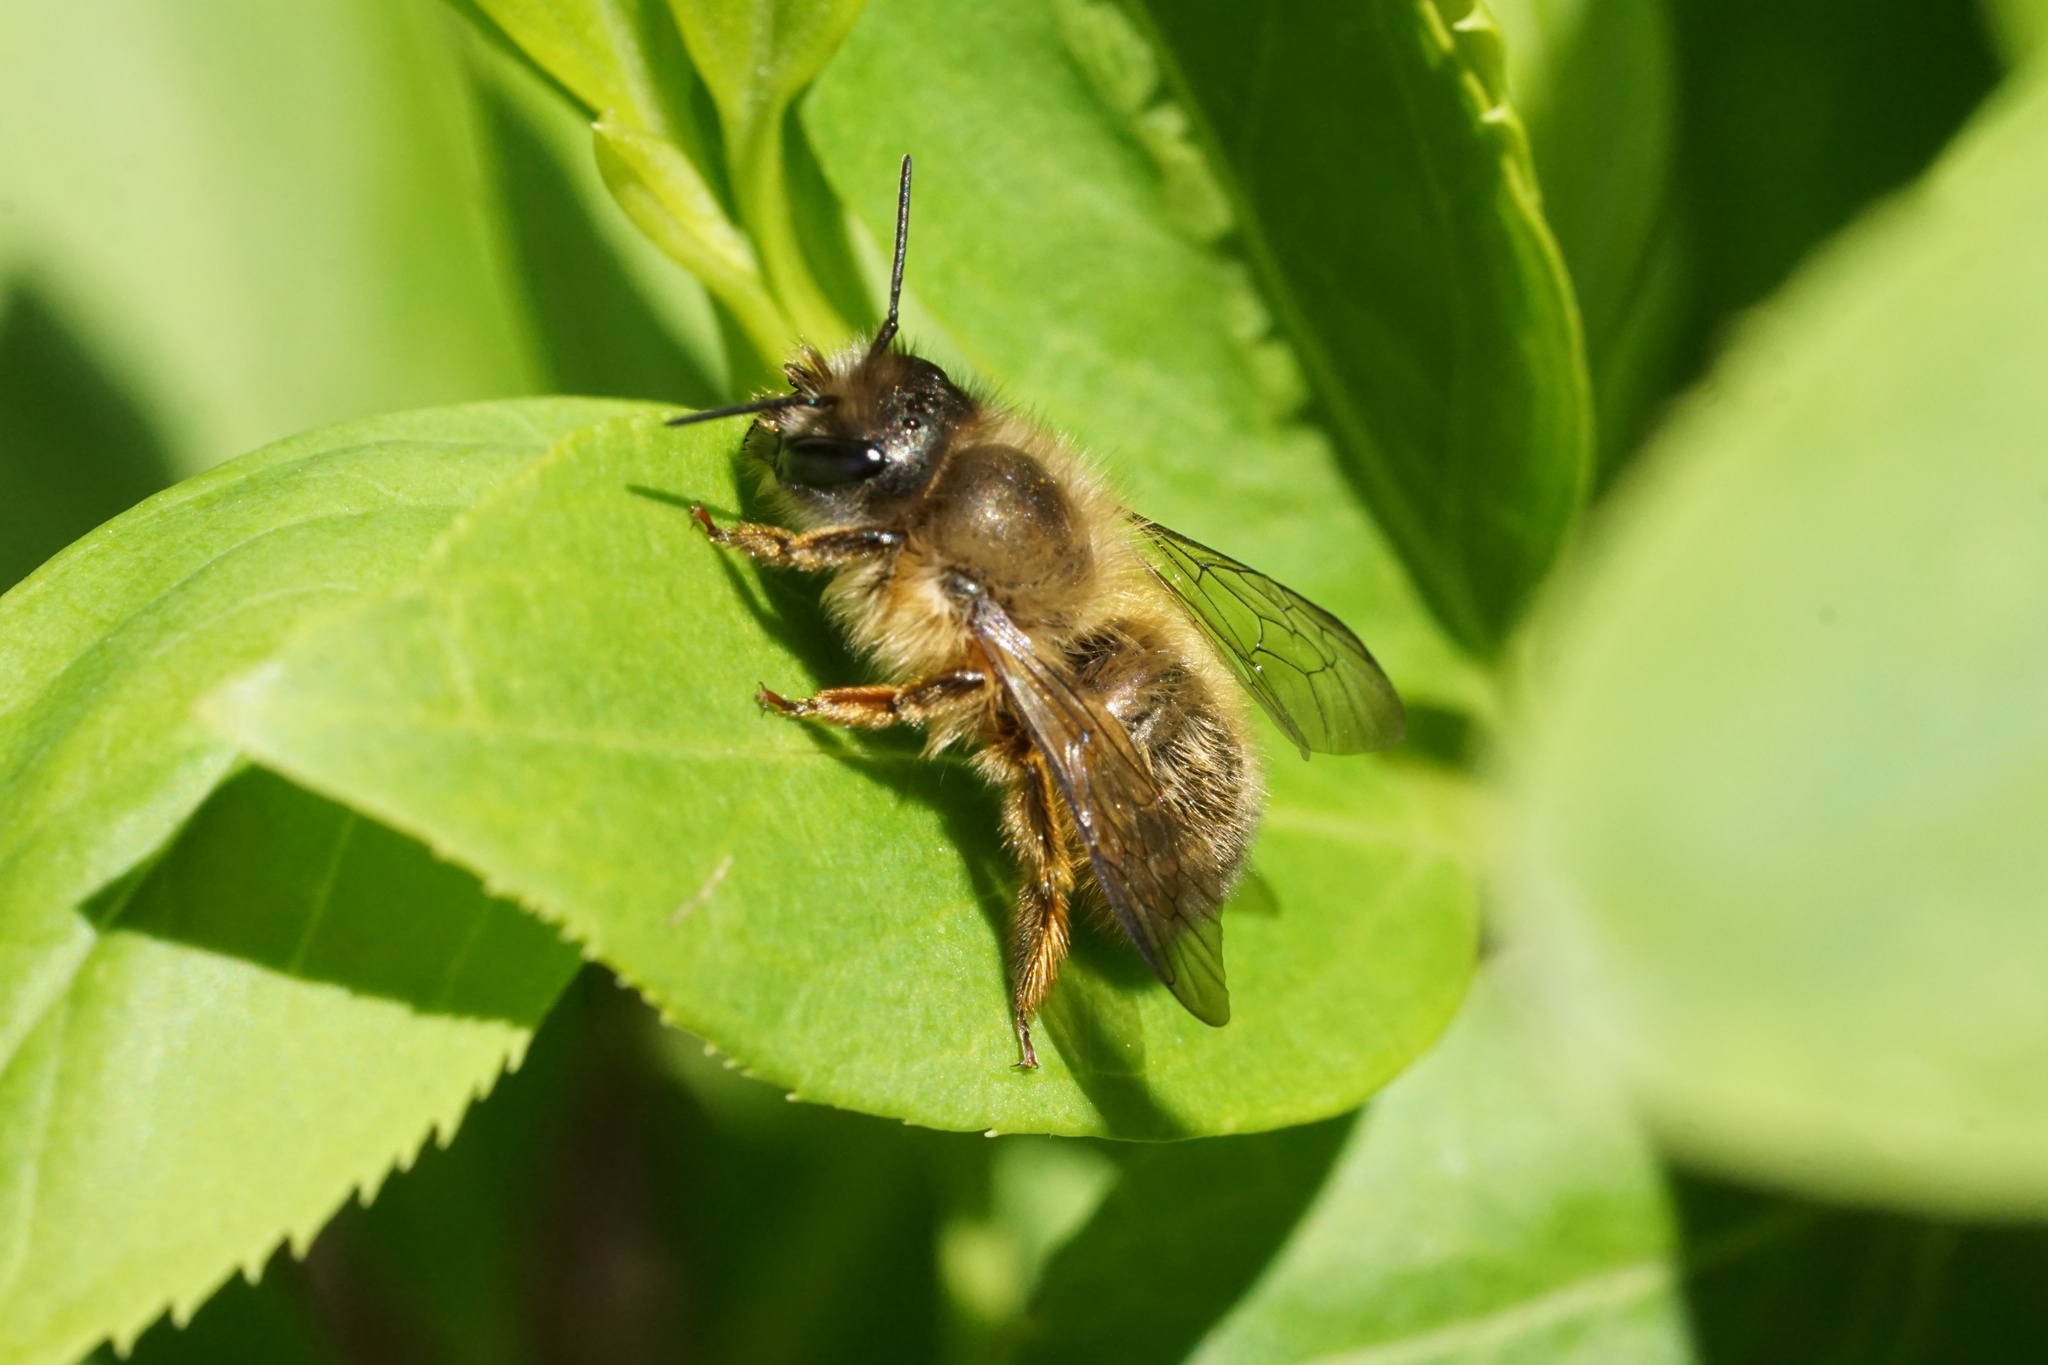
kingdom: Animalia
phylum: Arthropoda
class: Insecta
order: Hymenoptera
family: Megachilidae
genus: Osmia
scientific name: Osmia taurus
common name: Taurus mason bee
